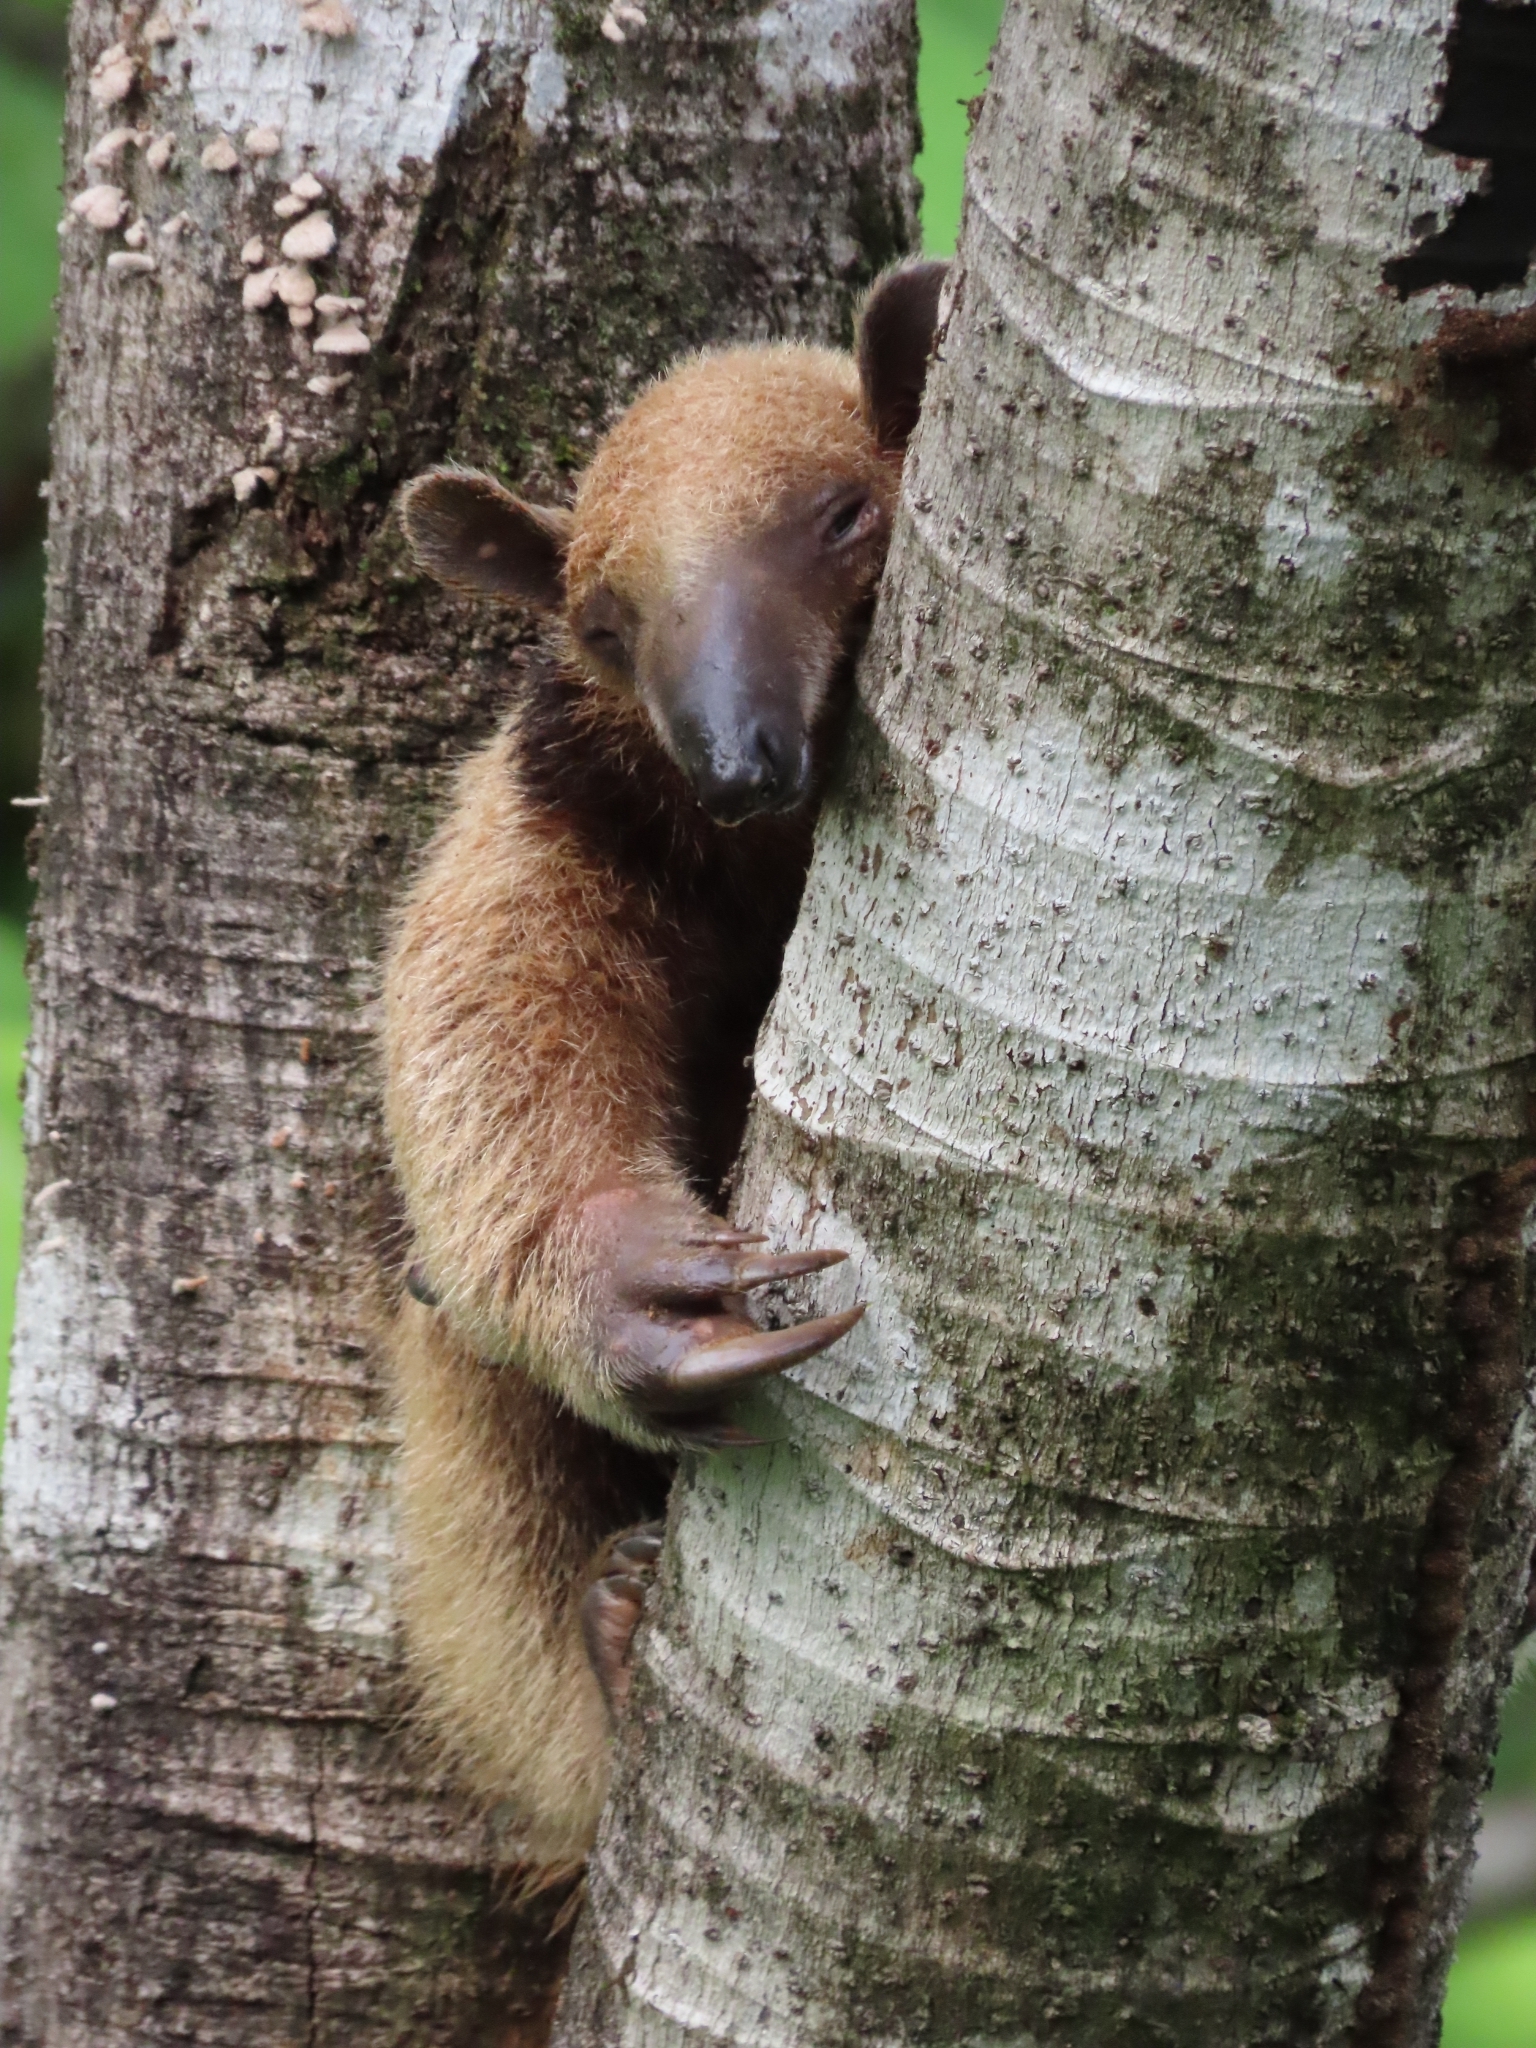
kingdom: Animalia
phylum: Chordata
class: Mammalia
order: Pilosa
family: Myrmecophagidae
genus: Tamandua
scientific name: Tamandua mexicana
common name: Northern tamandua
